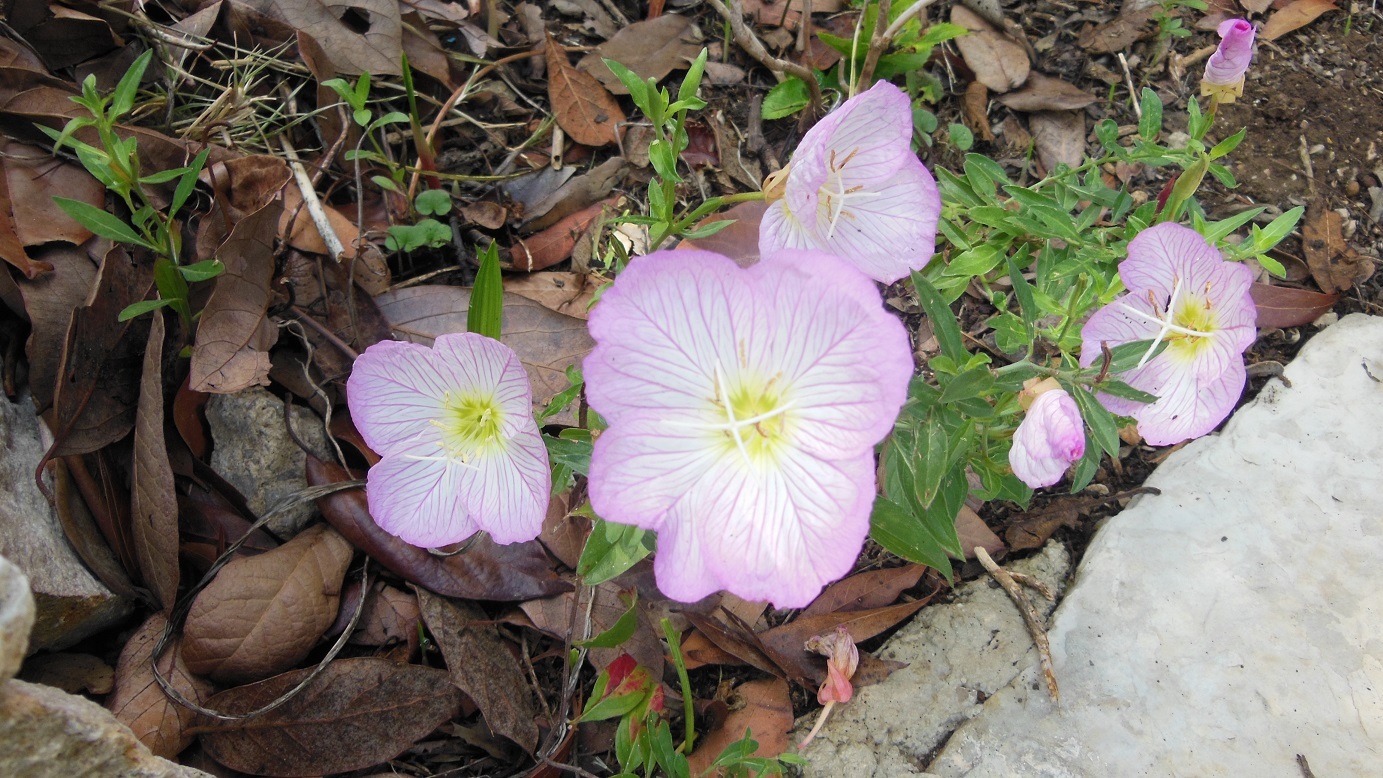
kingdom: Plantae
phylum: Tracheophyta
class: Magnoliopsida
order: Myrtales
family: Onagraceae
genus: Oenothera
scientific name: Oenothera speciosa
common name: White evening-primrose
